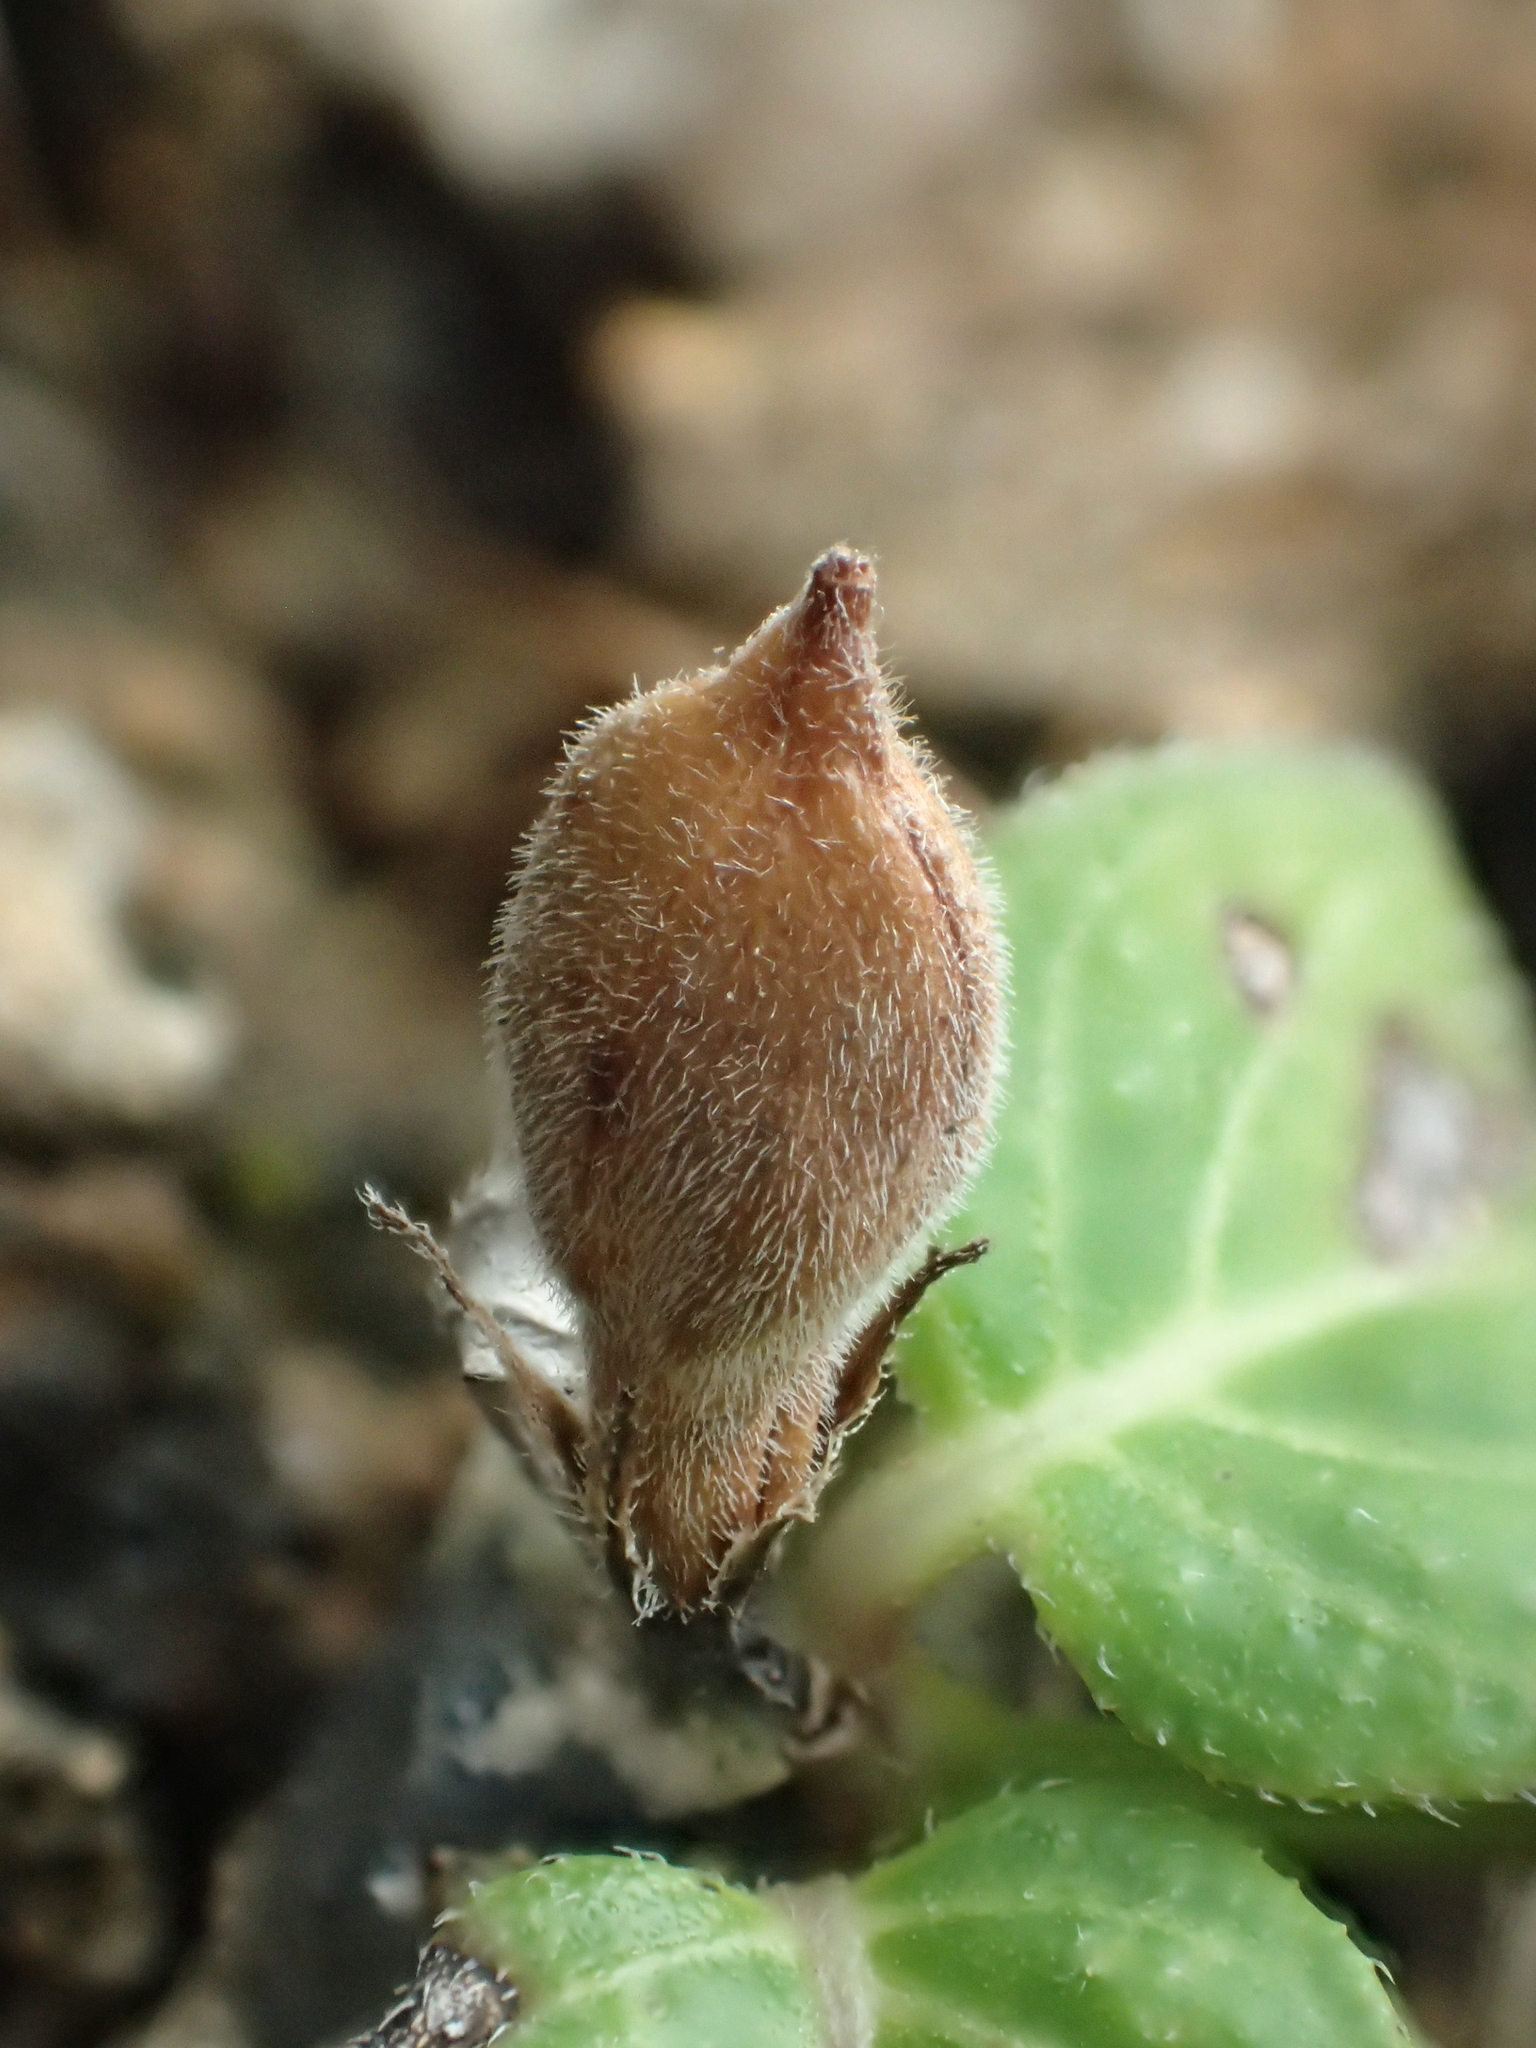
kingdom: Plantae
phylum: Tracheophyta
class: Magnoliopsida
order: Malpighiales
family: Violaceae
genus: Pigea
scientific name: Pigea enneasperma
